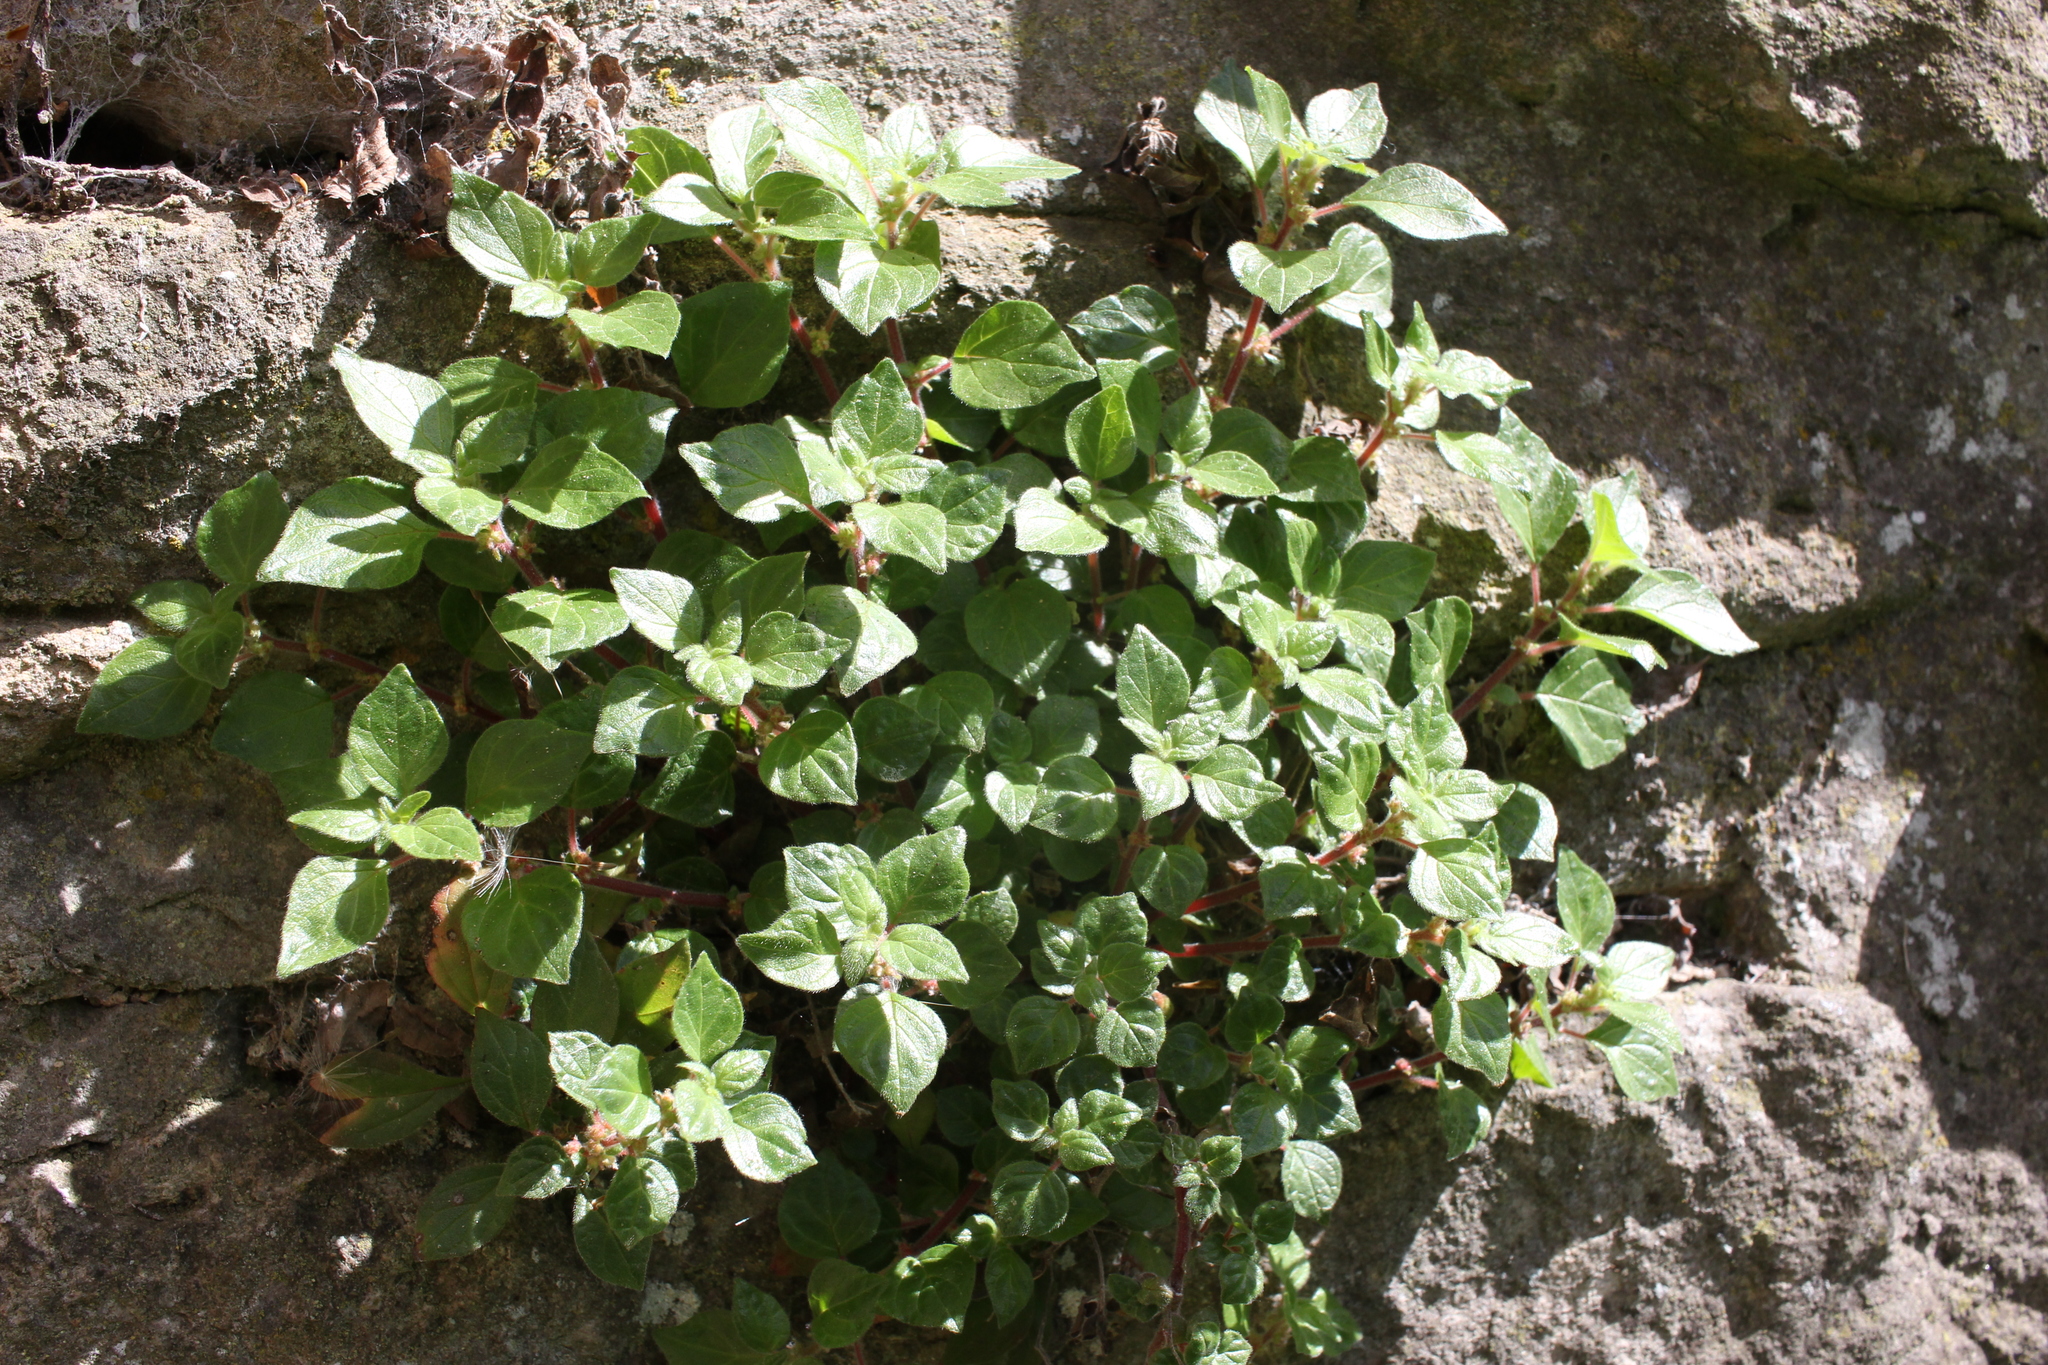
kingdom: Plantae
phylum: Tracheophyta
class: Magnoliopsida
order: Rosales
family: Urticaceae
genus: Parietaria
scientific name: Parietaria judaica
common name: Pellitory-of-the-wall
